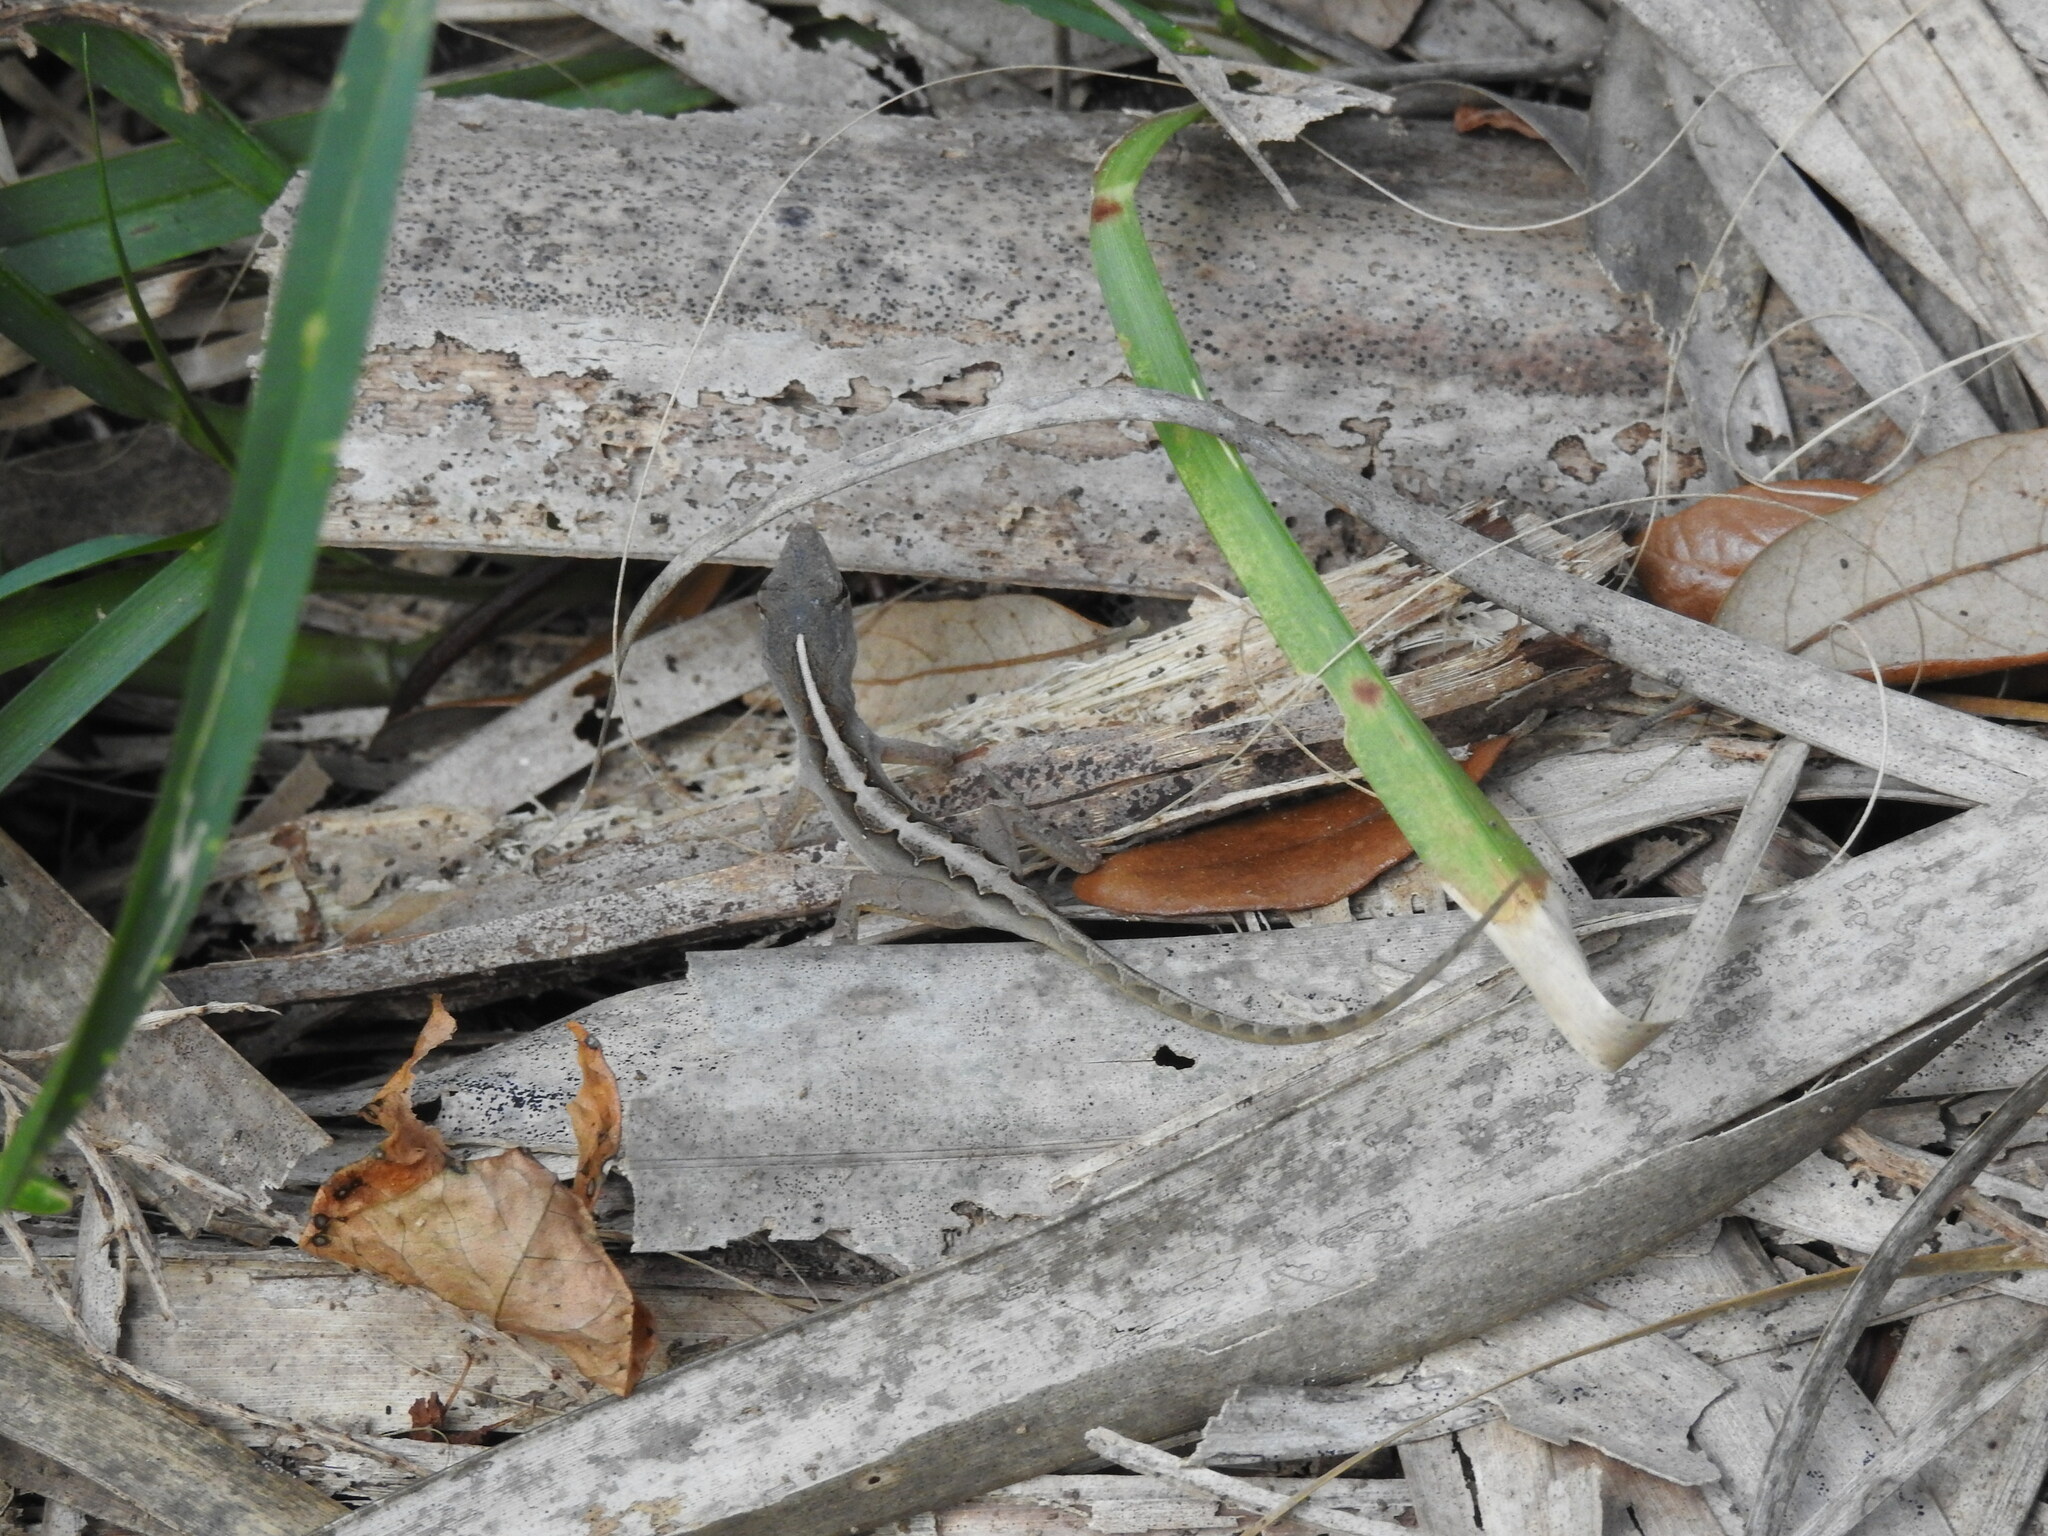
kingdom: Animalia
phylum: Chordata
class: Squamata
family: Dactyloidae
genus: Anolis
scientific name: Anolis sagrei
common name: Brown anole
